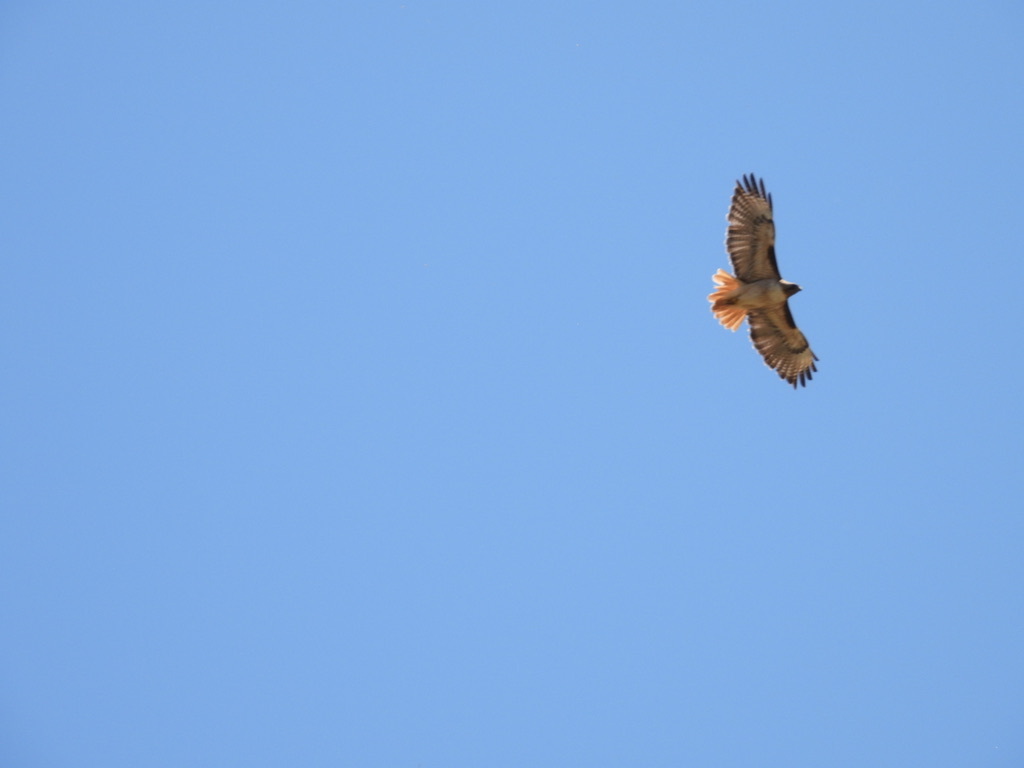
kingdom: Animalia
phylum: Chordata
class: Aves
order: Accipitriformes
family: Accipitridae
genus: Buteo
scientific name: Buteo jamaicensis
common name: Red-tailed hawk
